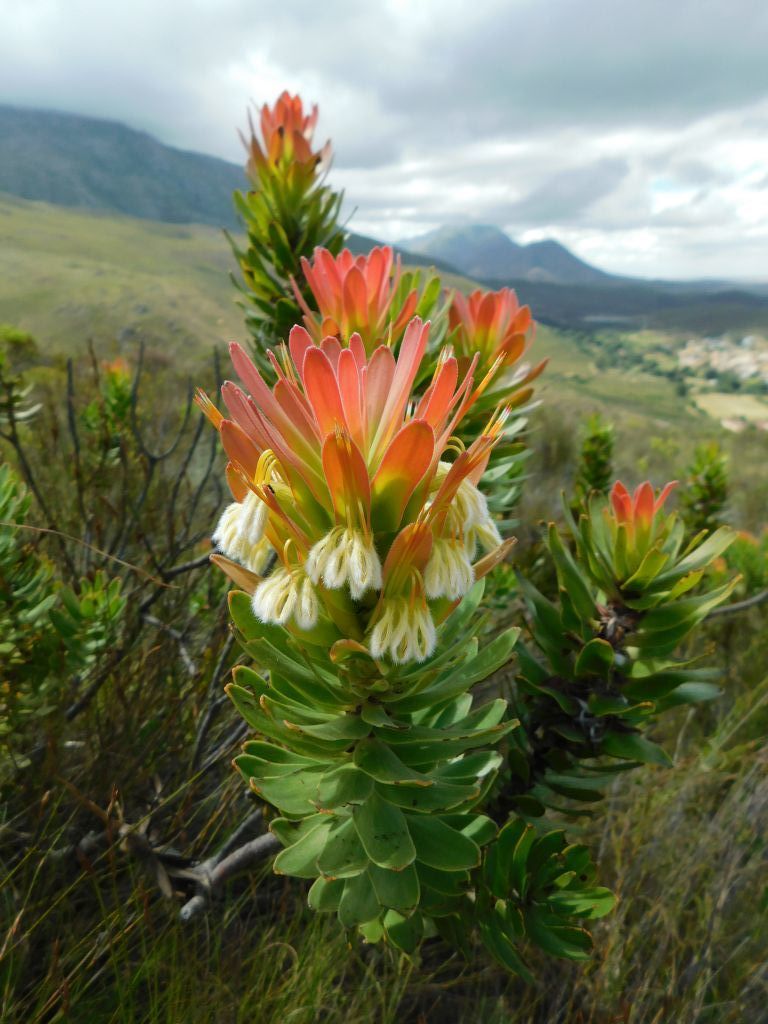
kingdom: Plantae
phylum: Tracheophyta
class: Magnoliopsida
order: Proteales
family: Proteaceae
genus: Mimetes
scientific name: Mimetes cucullatus
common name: Common pagoda
